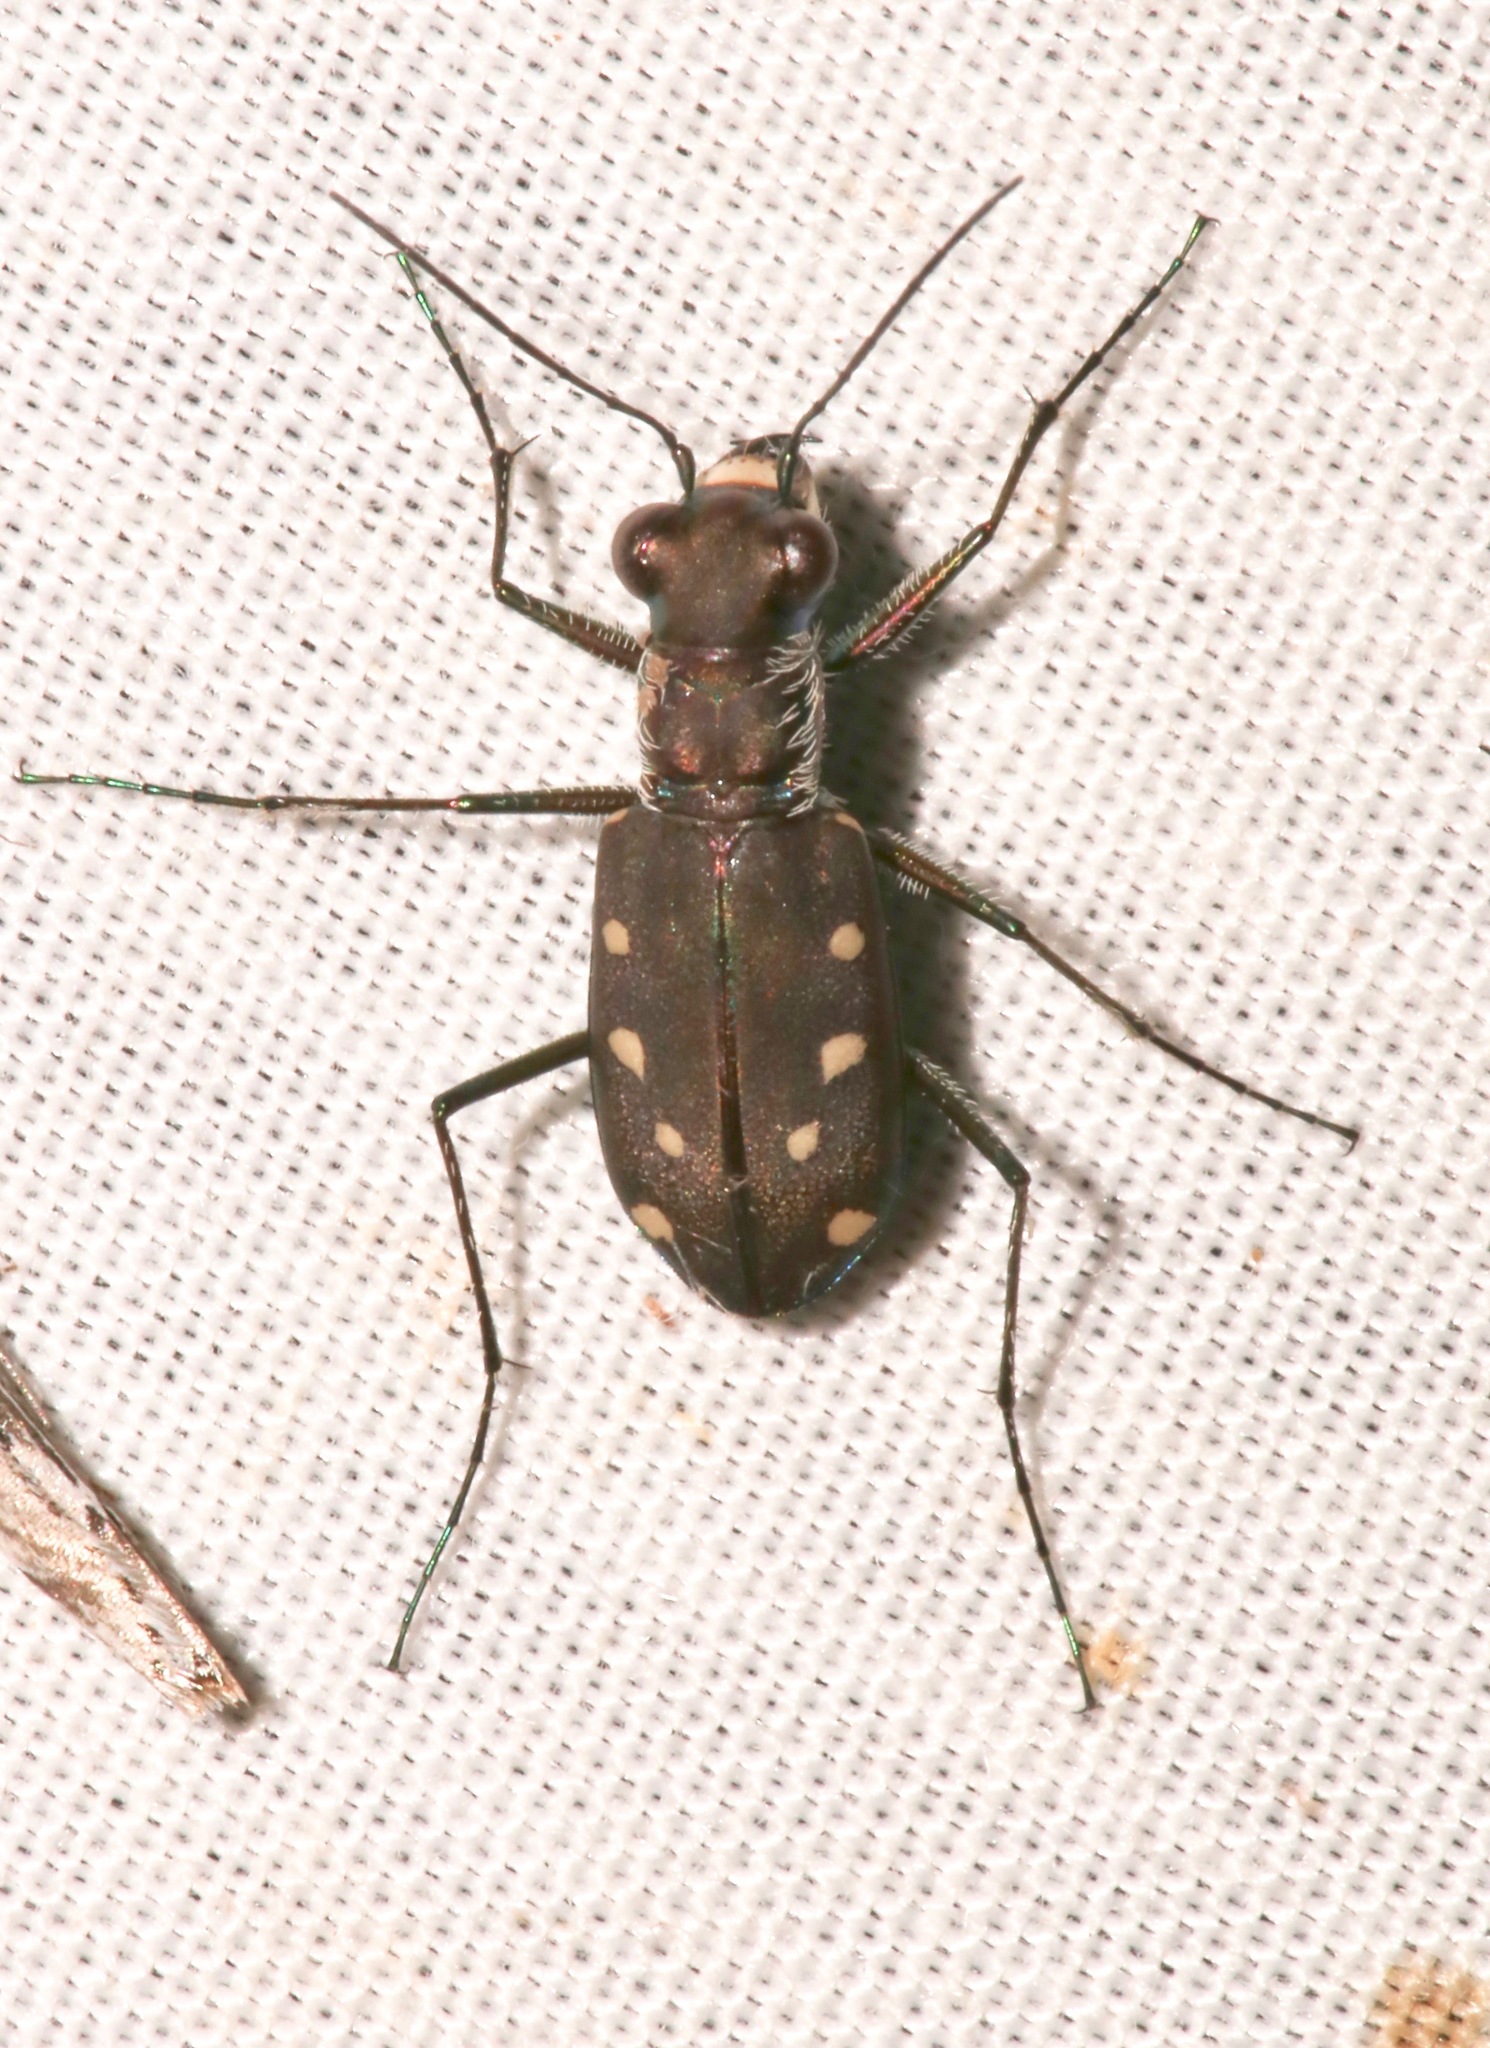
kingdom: Animalia
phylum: Arthropoda
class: Insecta
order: Coleoptera
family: Carabidae
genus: Cicindela
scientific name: Cicindela ocellata
